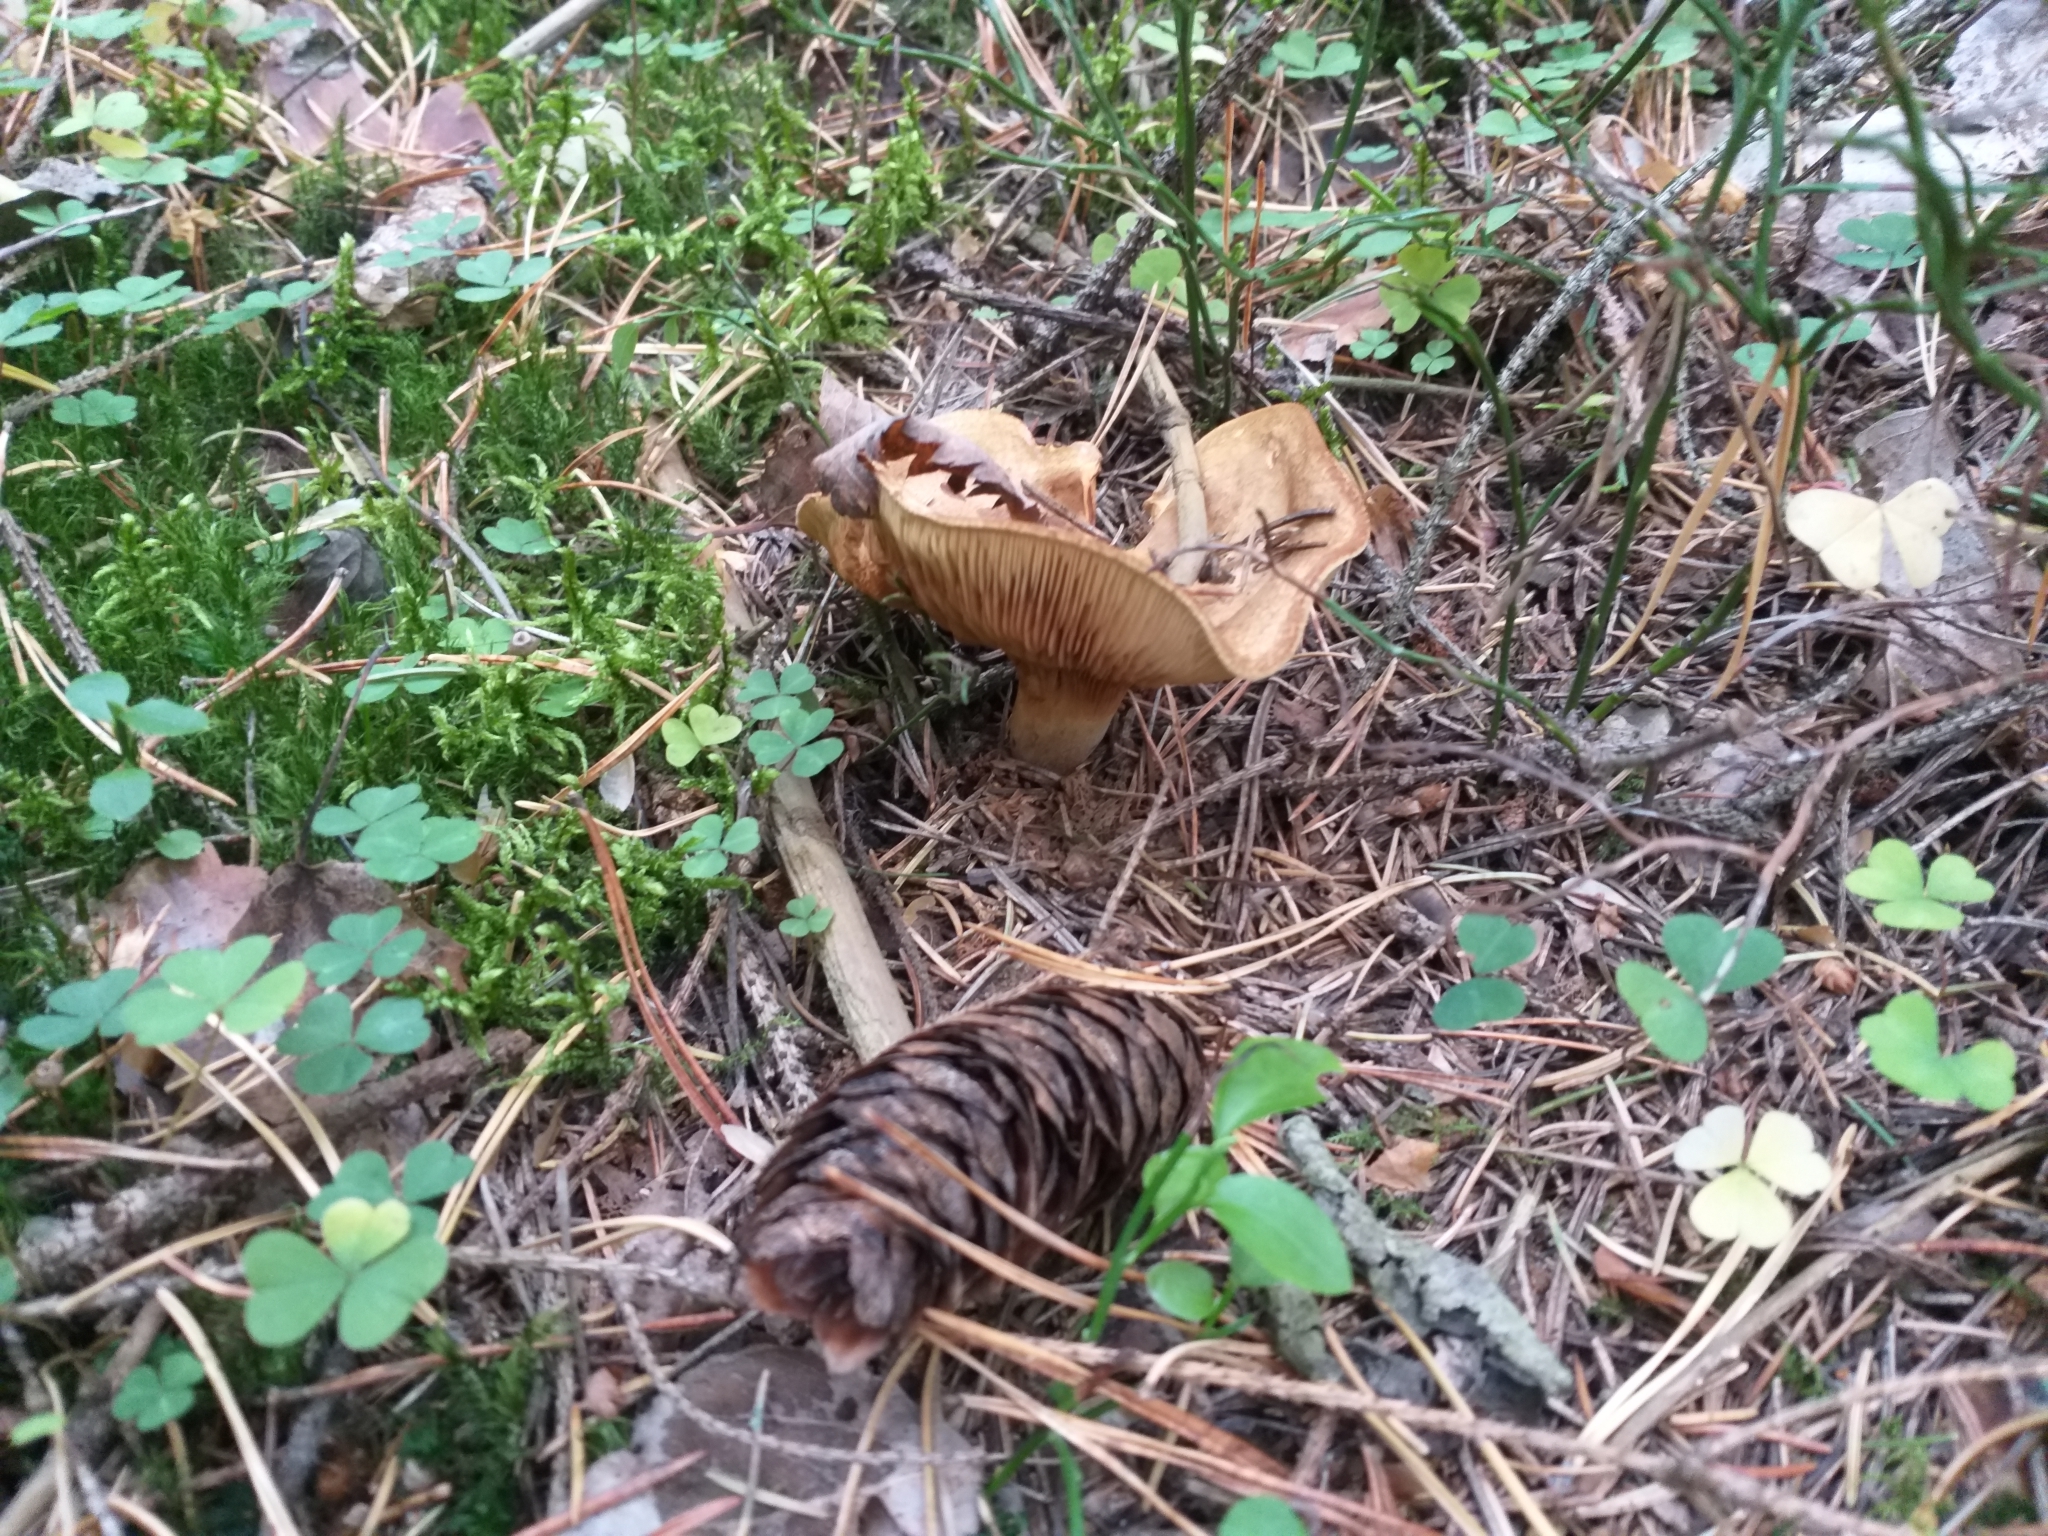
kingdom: Fungi
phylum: Basidiomycota
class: Agaricomycetes
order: Boletales
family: Paxillaceae
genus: Paxillus
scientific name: Paxillus involutus
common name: Brown roll rim
